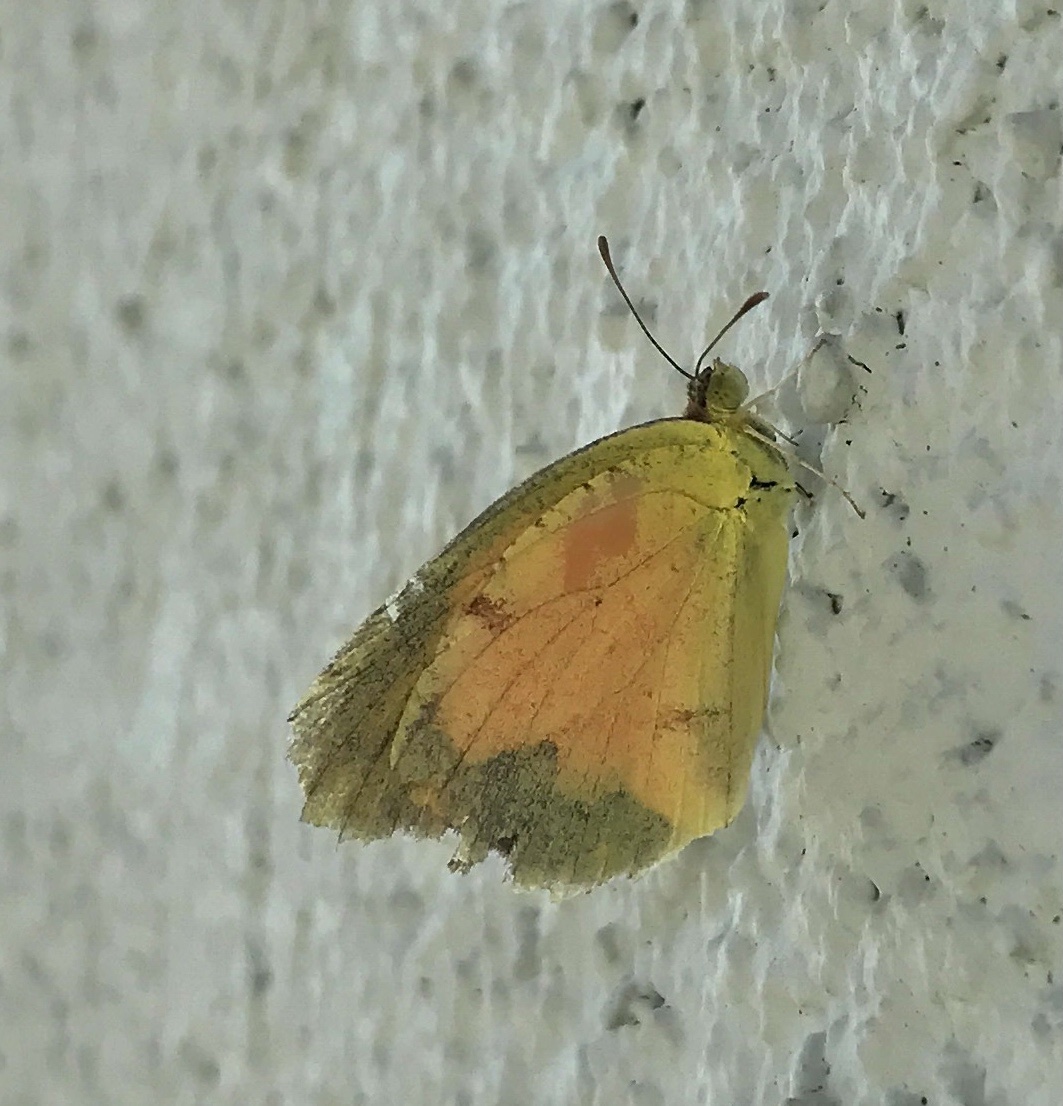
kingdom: Animalia
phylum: Arthropoda
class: Insecta
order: Lepidoptera
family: Pieridae
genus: Abaeis
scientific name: Abaeis nicippe
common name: Sleepy orange
